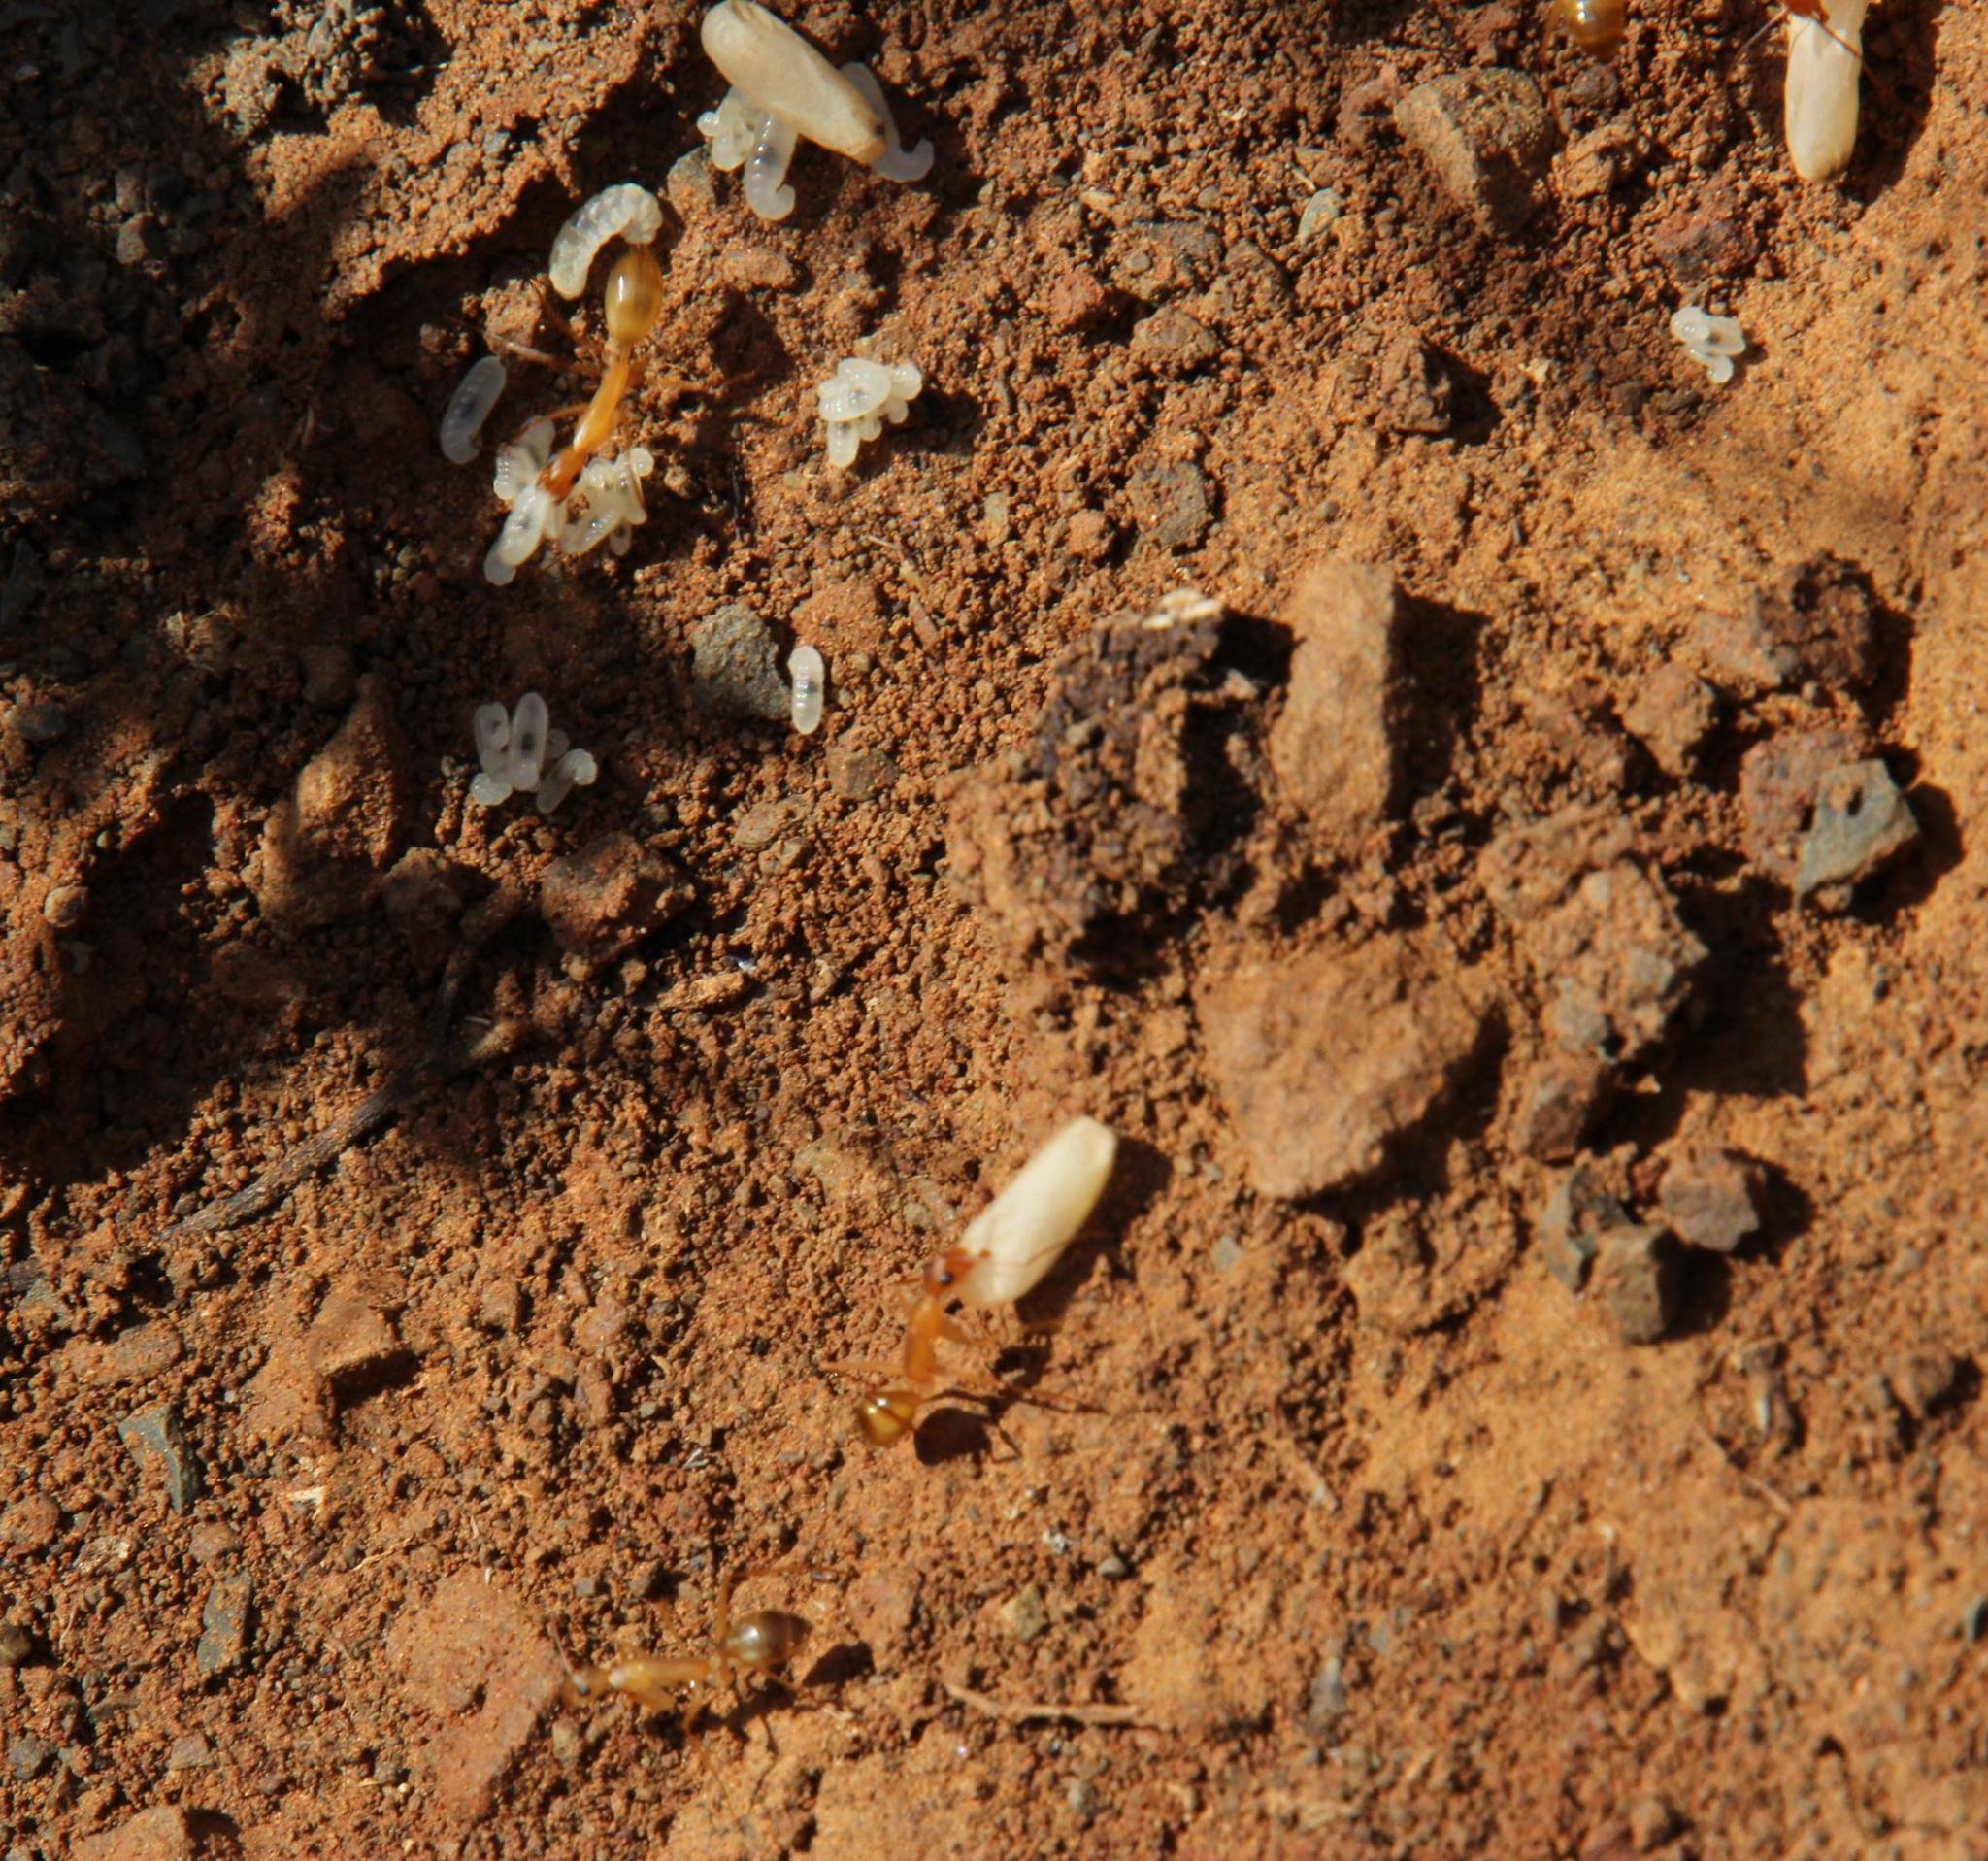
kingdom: Animalia
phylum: Arthropoda
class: Insecta
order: Hymenoptera
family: Formicidae
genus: Camponotus
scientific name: Camponotus cuneiscapus
